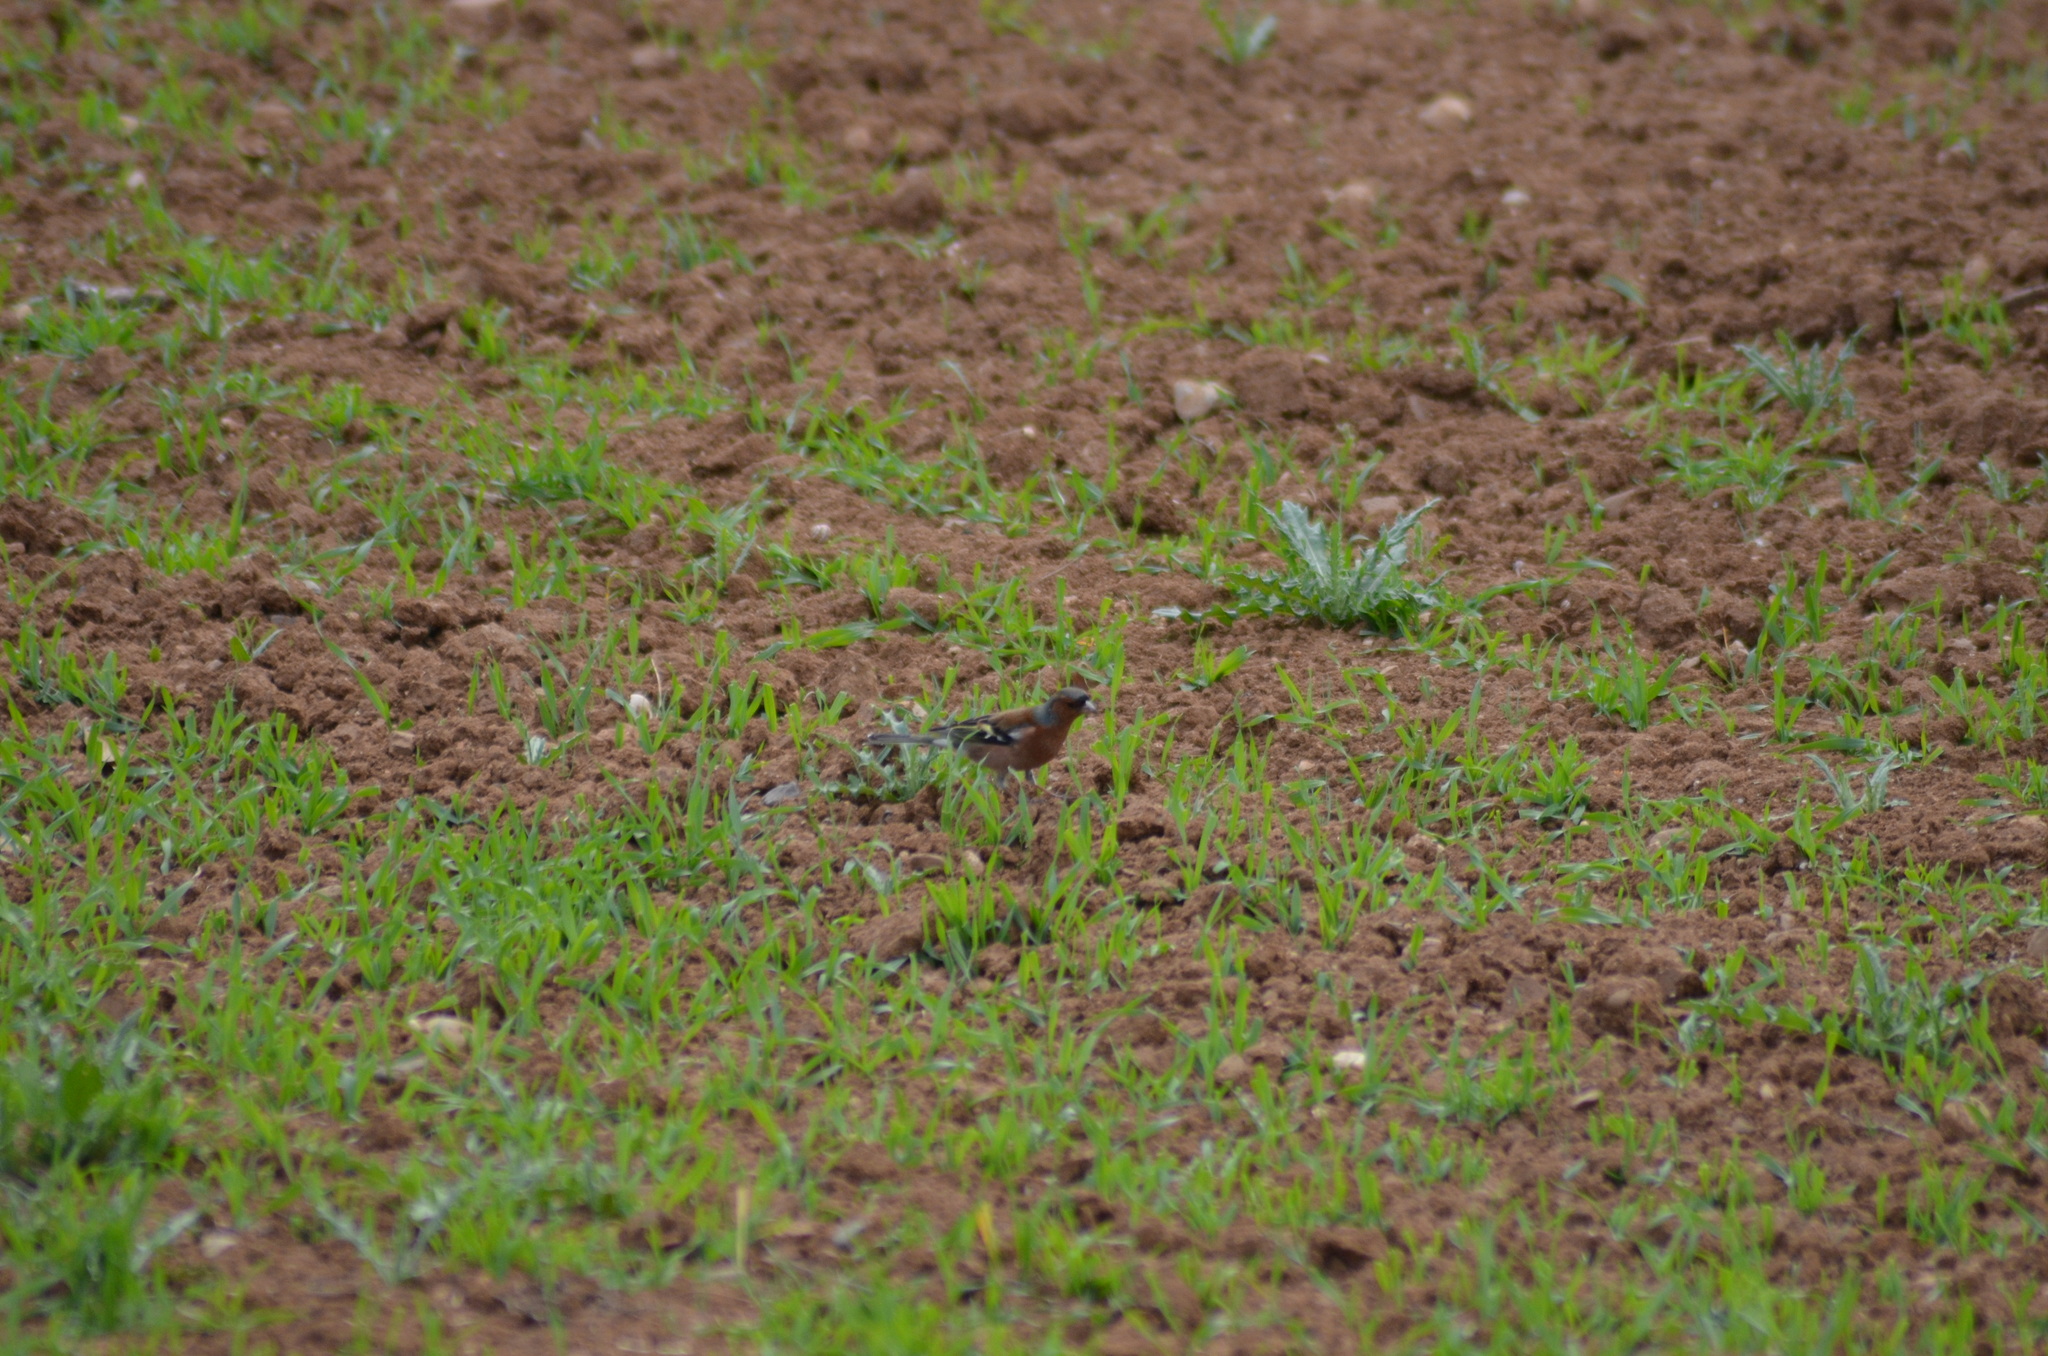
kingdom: Animalia
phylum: Chordata
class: Aves
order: Passeriformes
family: Fringillidae
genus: Fringilla
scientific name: Fringilla coelebs
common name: Common chaffinch
